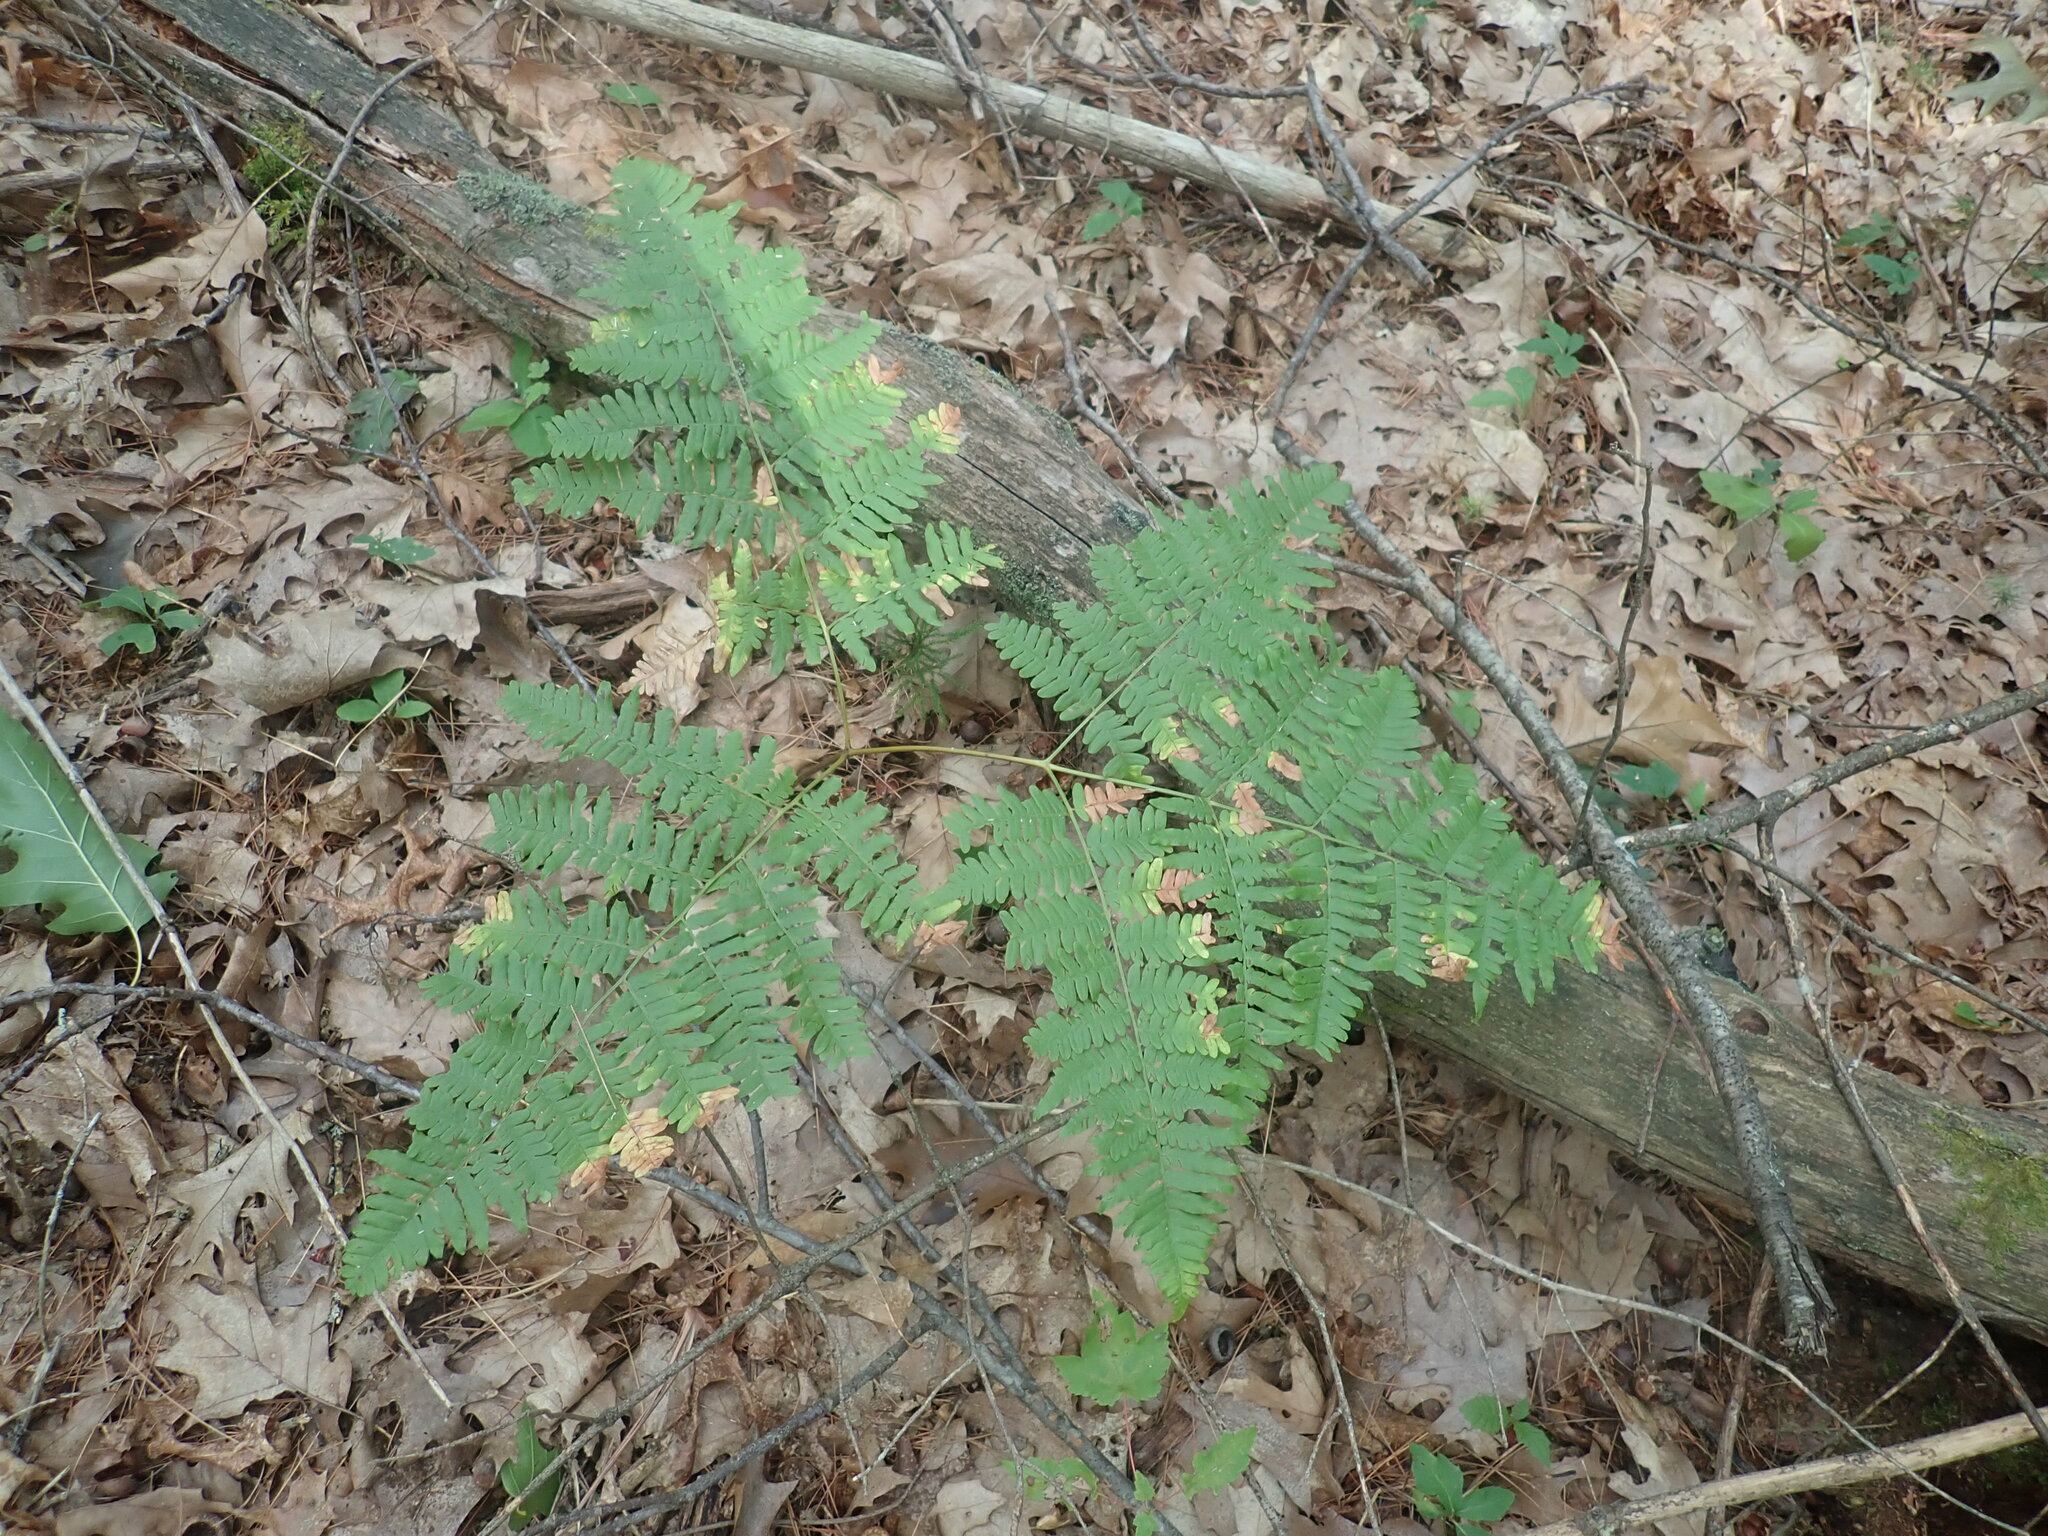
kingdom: Plantae
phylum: Tracheophyta
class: Polypodiopsida
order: Polypodiales
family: Dennstaedtiaceae
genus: Pteridium
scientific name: Pteridium aquilinum
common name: Bracken
